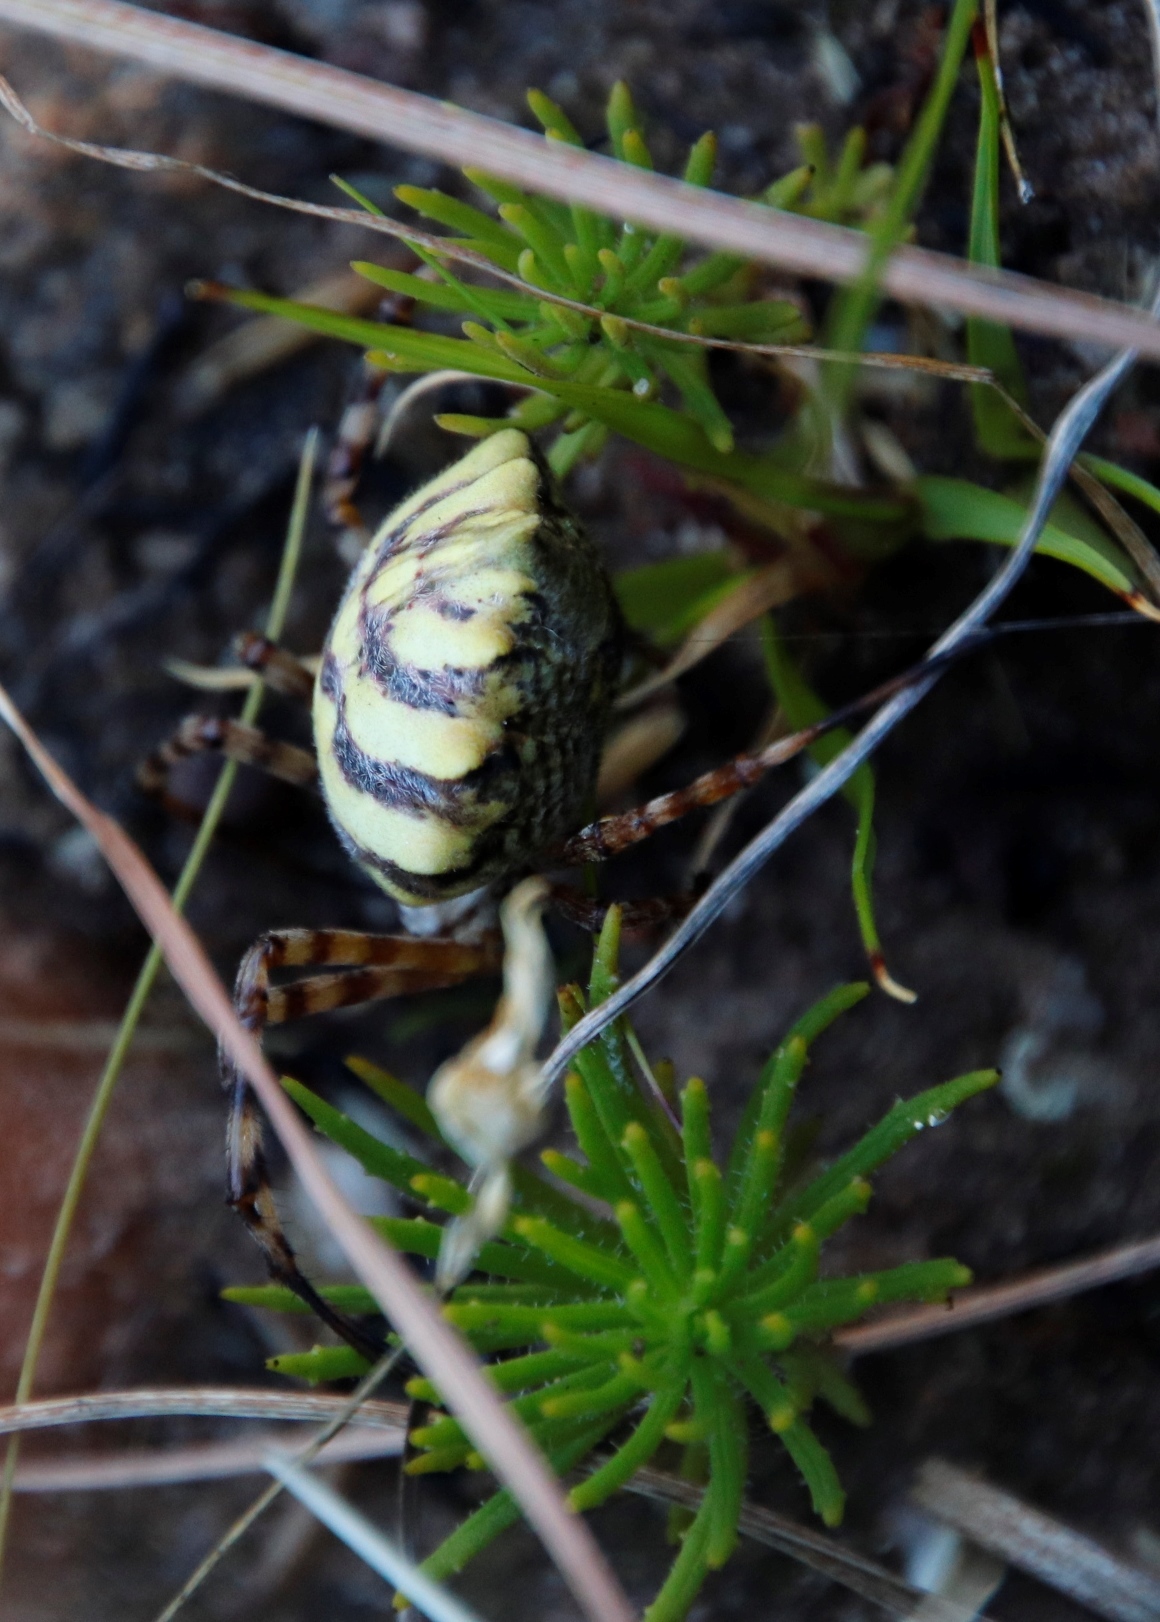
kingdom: Animalia
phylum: Arthropoda
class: Arachnida
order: Araneae
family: Araneidae
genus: Argiope
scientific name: Argiope australis
